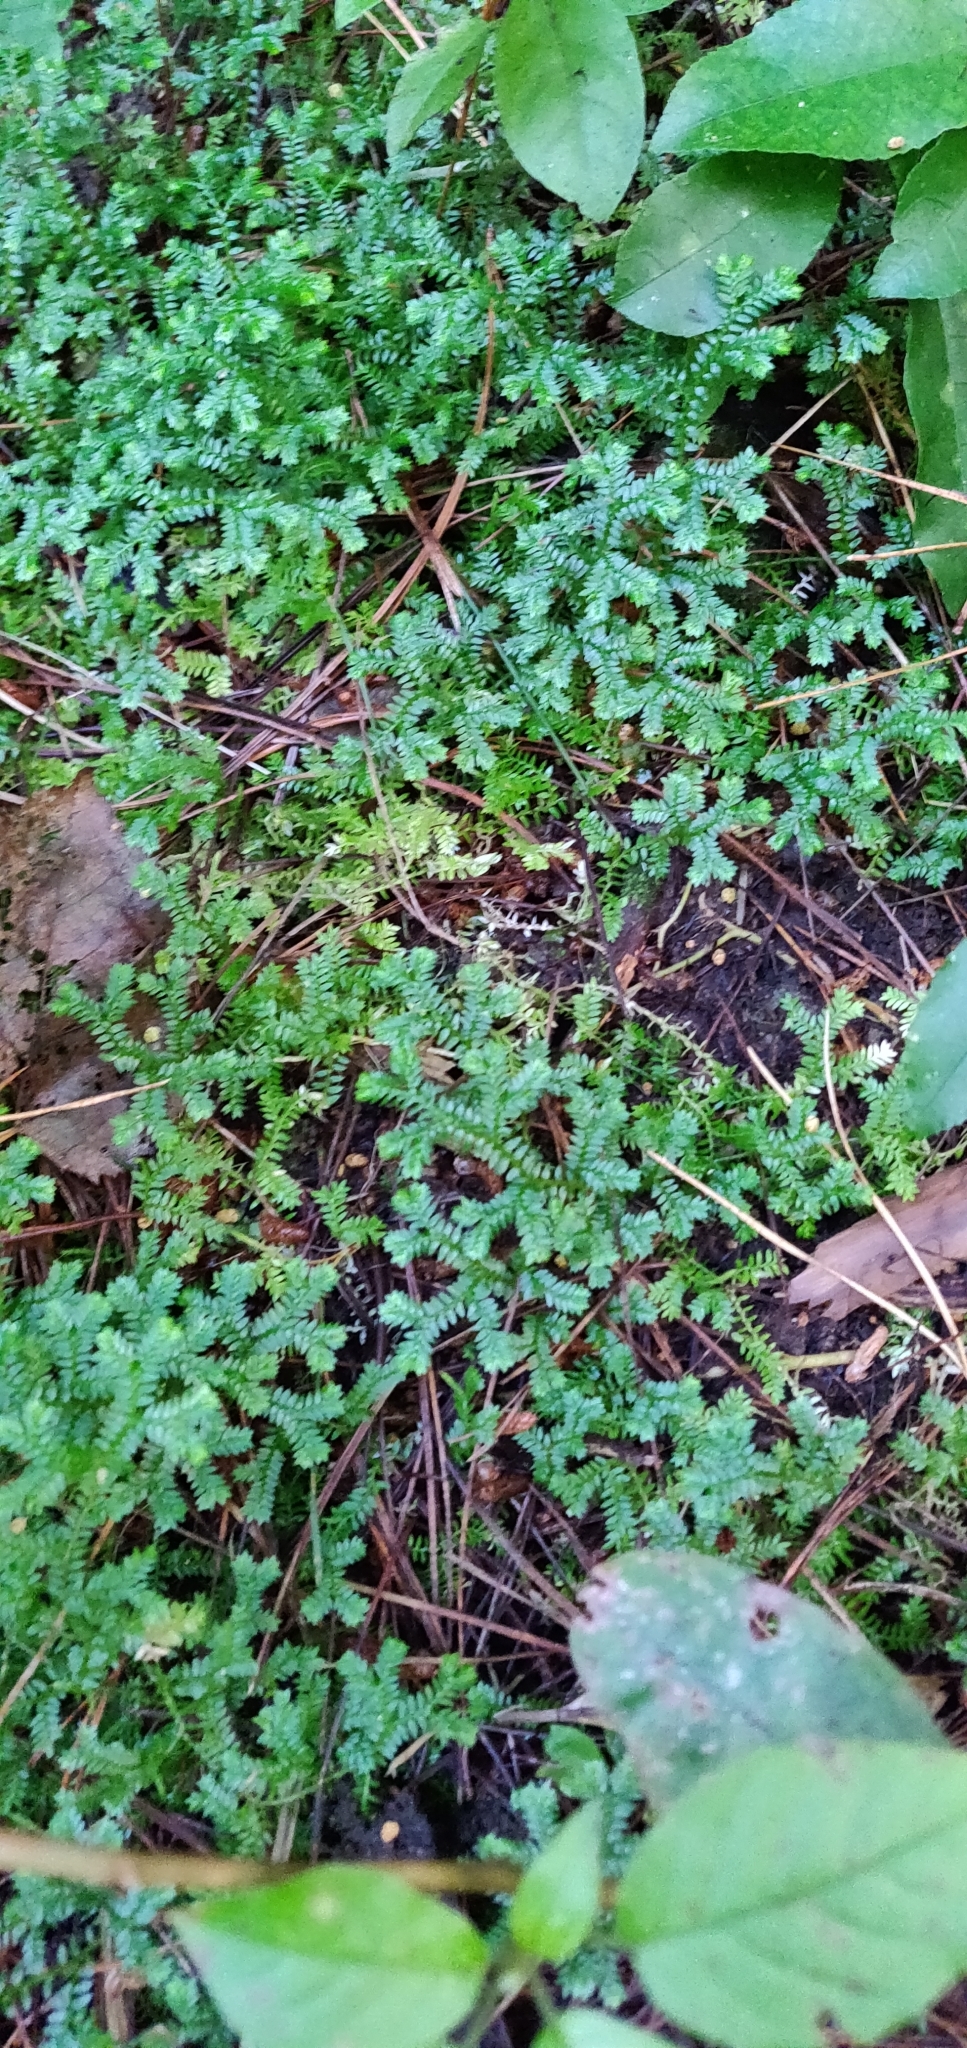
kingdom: Plantae
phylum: Tracheophyta
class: Lycopodiopsida
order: Selaginellales
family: Selaginellaceae
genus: Selaginella
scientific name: Selaginella kraussiana
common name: Krauss' spikemoss
